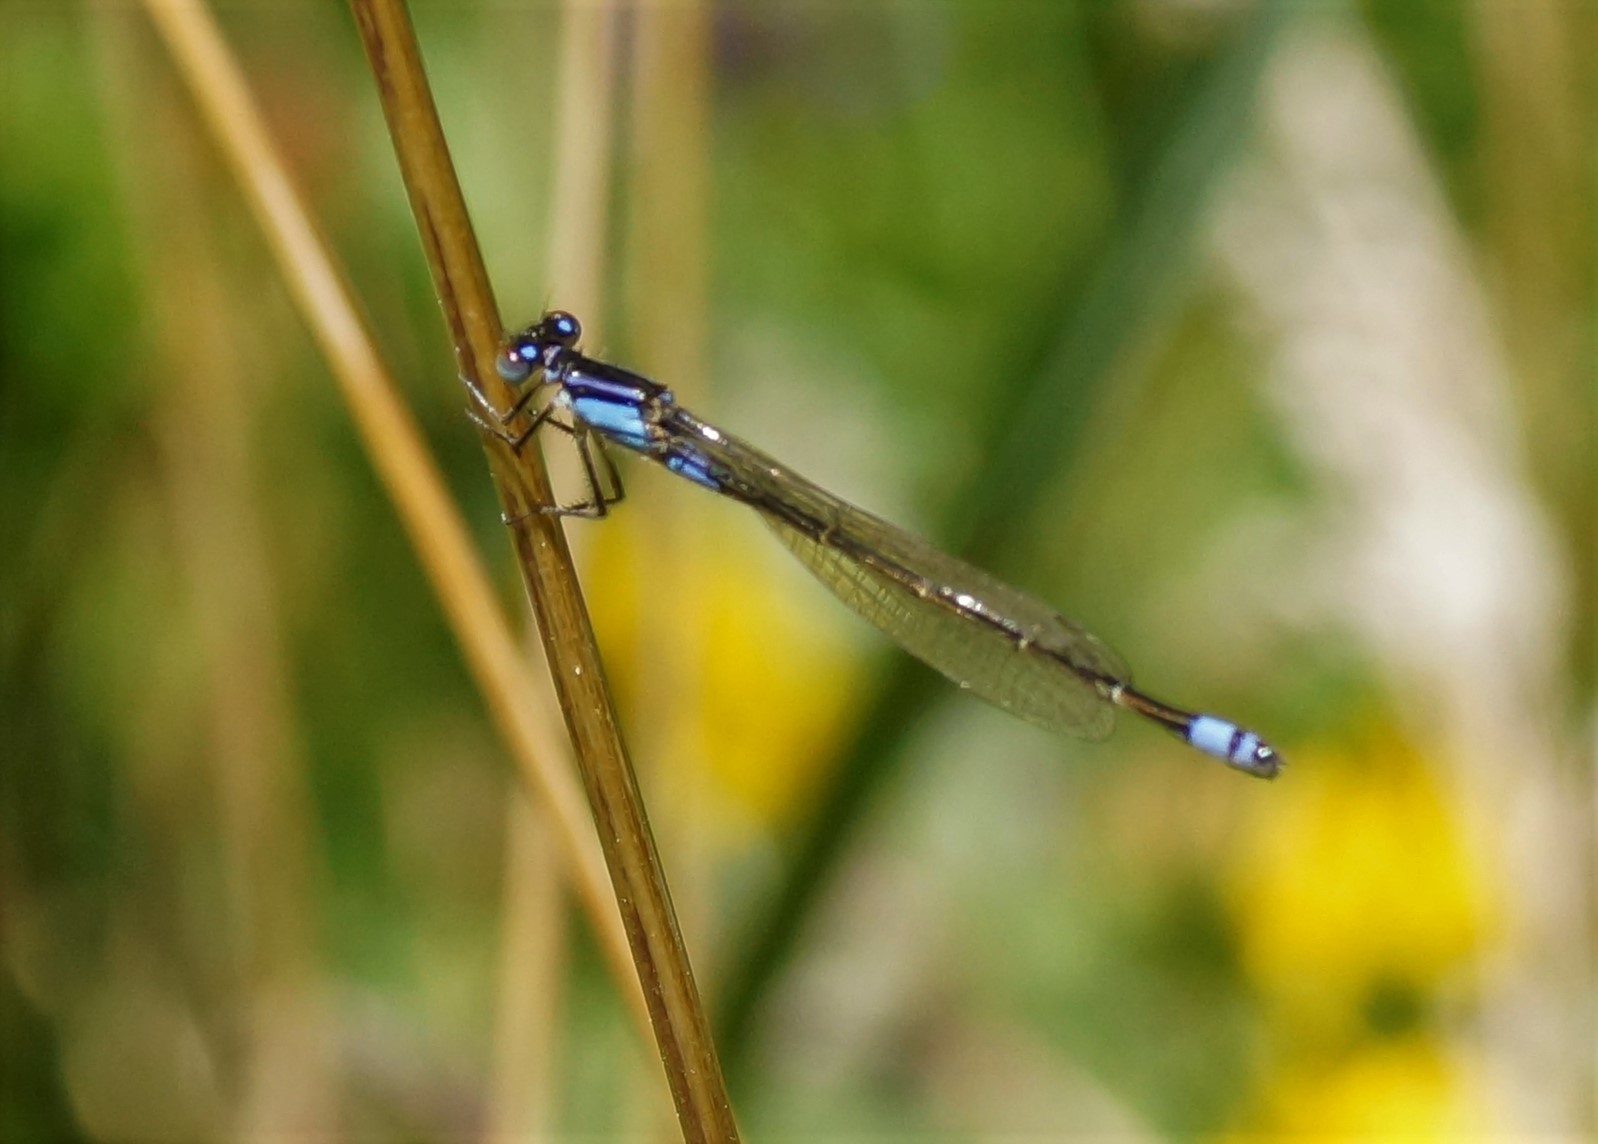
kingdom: Animalia
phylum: Arthropoda
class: Insecta
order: Odonata
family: Coenagrionidae
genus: Ischnura
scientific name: Ischnura heterosticta
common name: Common bluetail
